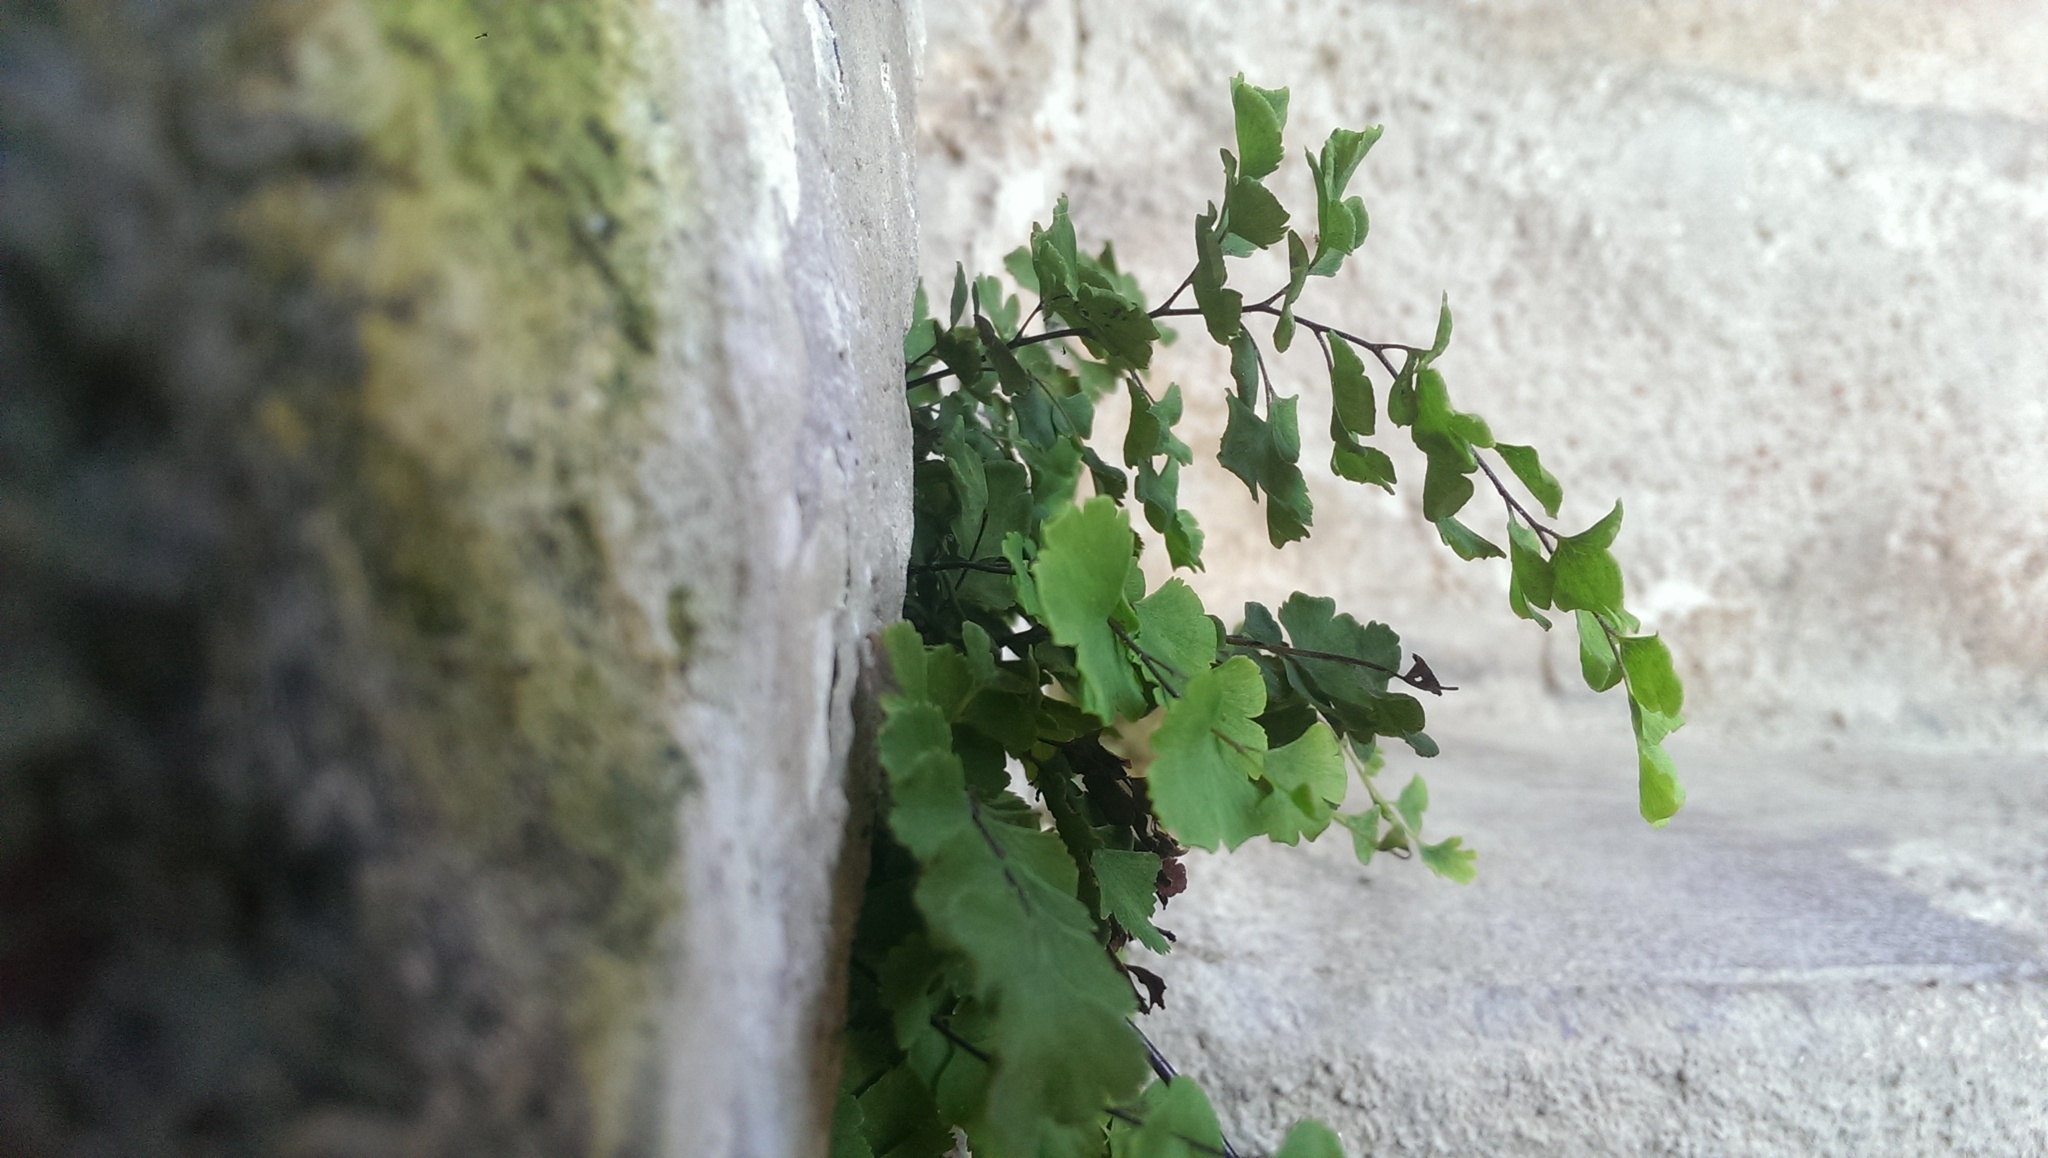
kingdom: Plantae
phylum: Tracheophyta
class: Polypodiopsida
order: Polypodiales
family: Pteridaceae
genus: Adiantum
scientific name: Adiantum capillus-veneris
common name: Maidenhair fern
